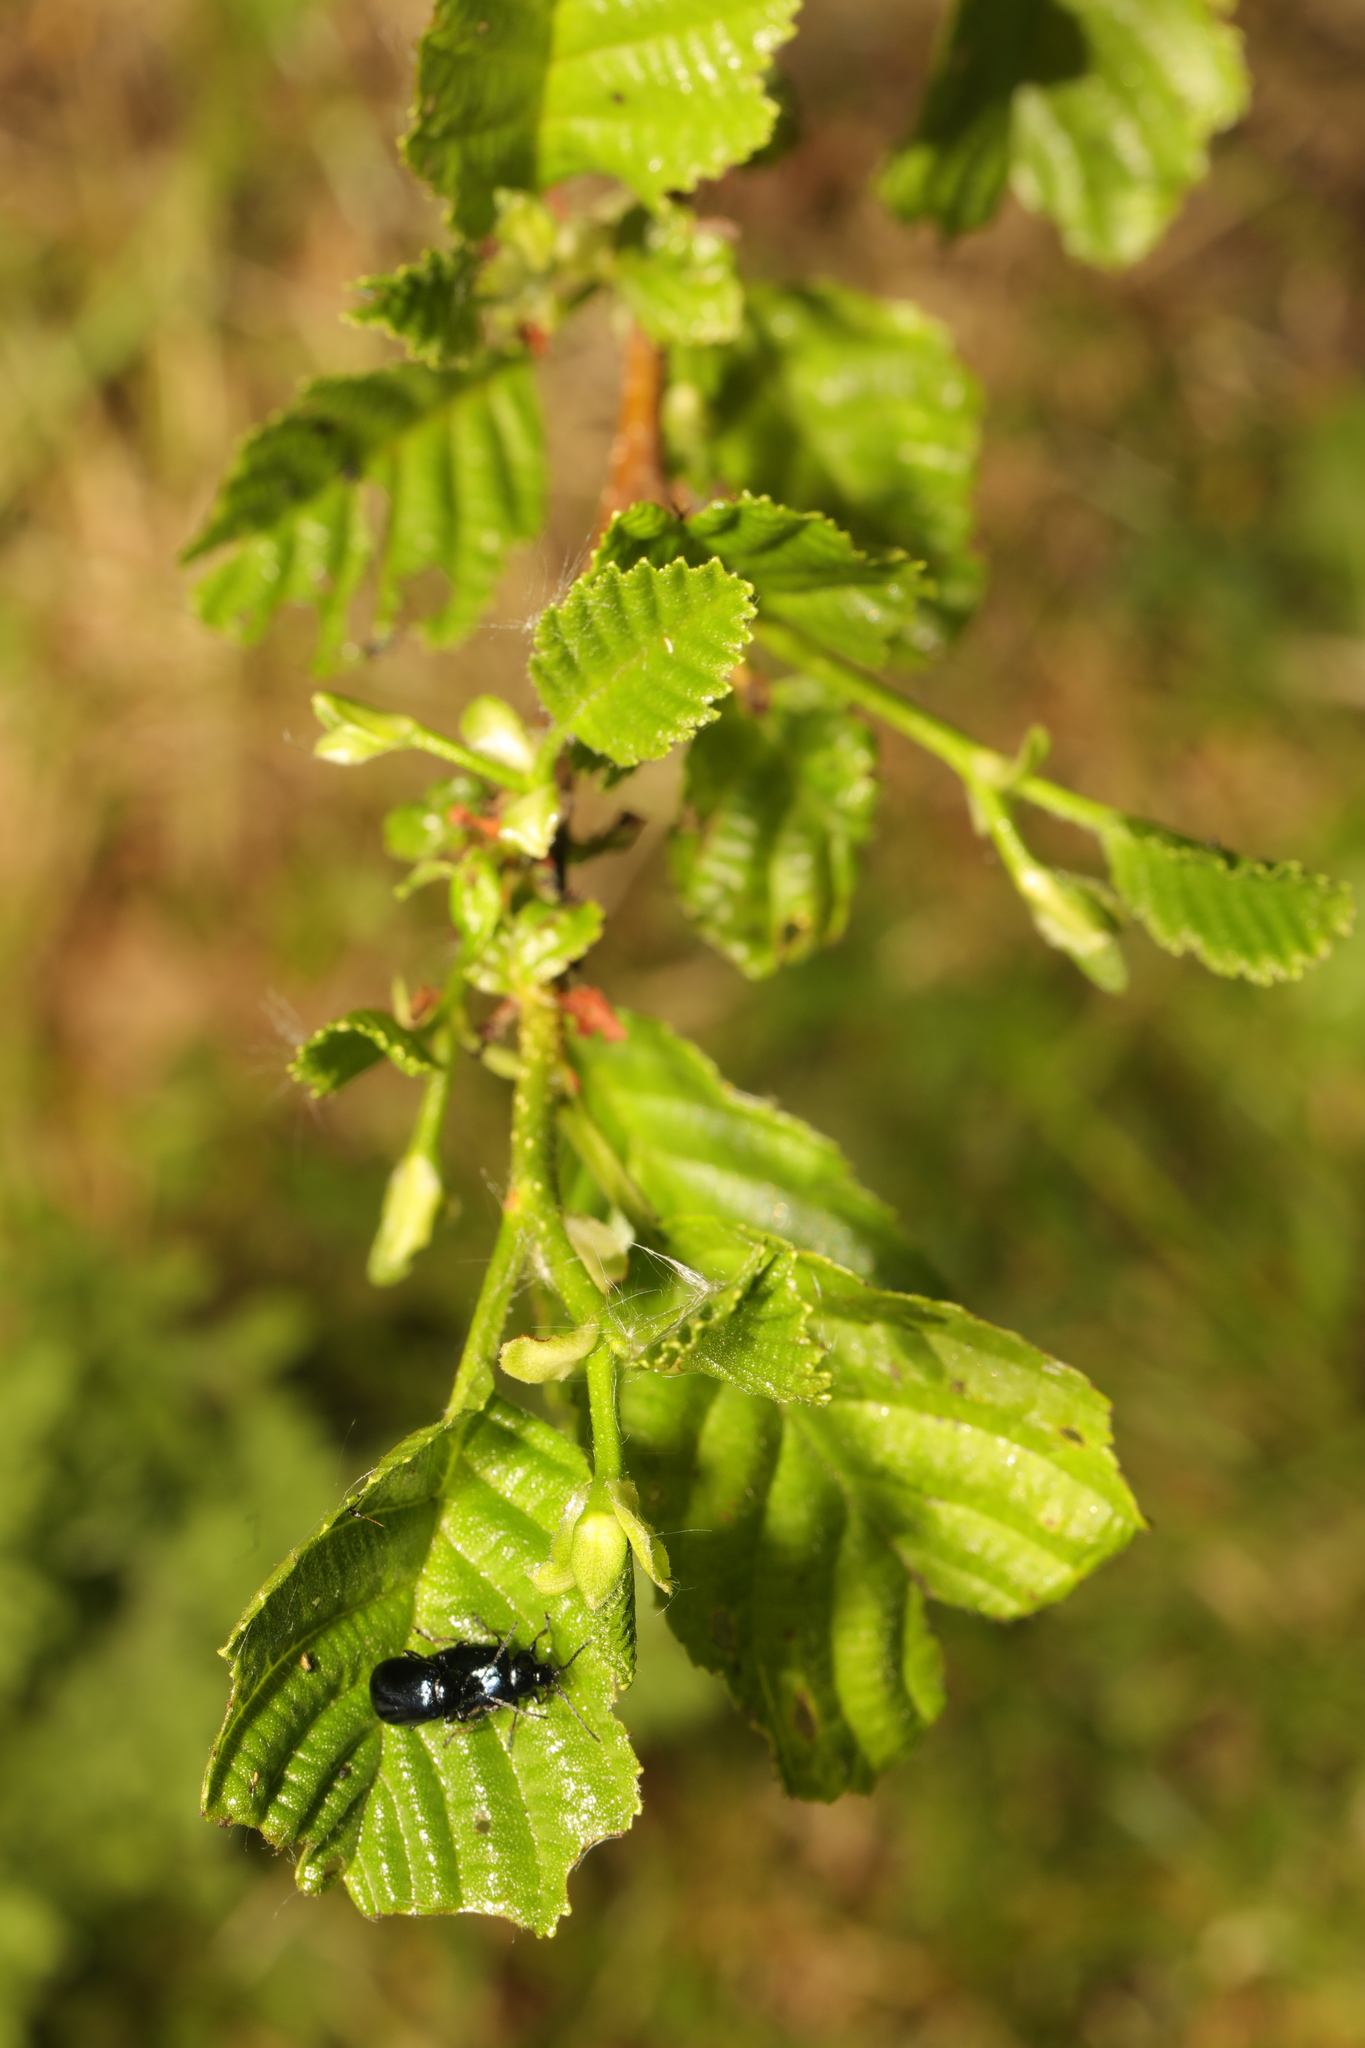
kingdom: Plantae
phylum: Tracheophyta
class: Magnoliopsida
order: Fagales
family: Betulaceae
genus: Alnus
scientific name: Alnus glutinosa
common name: Black alder
